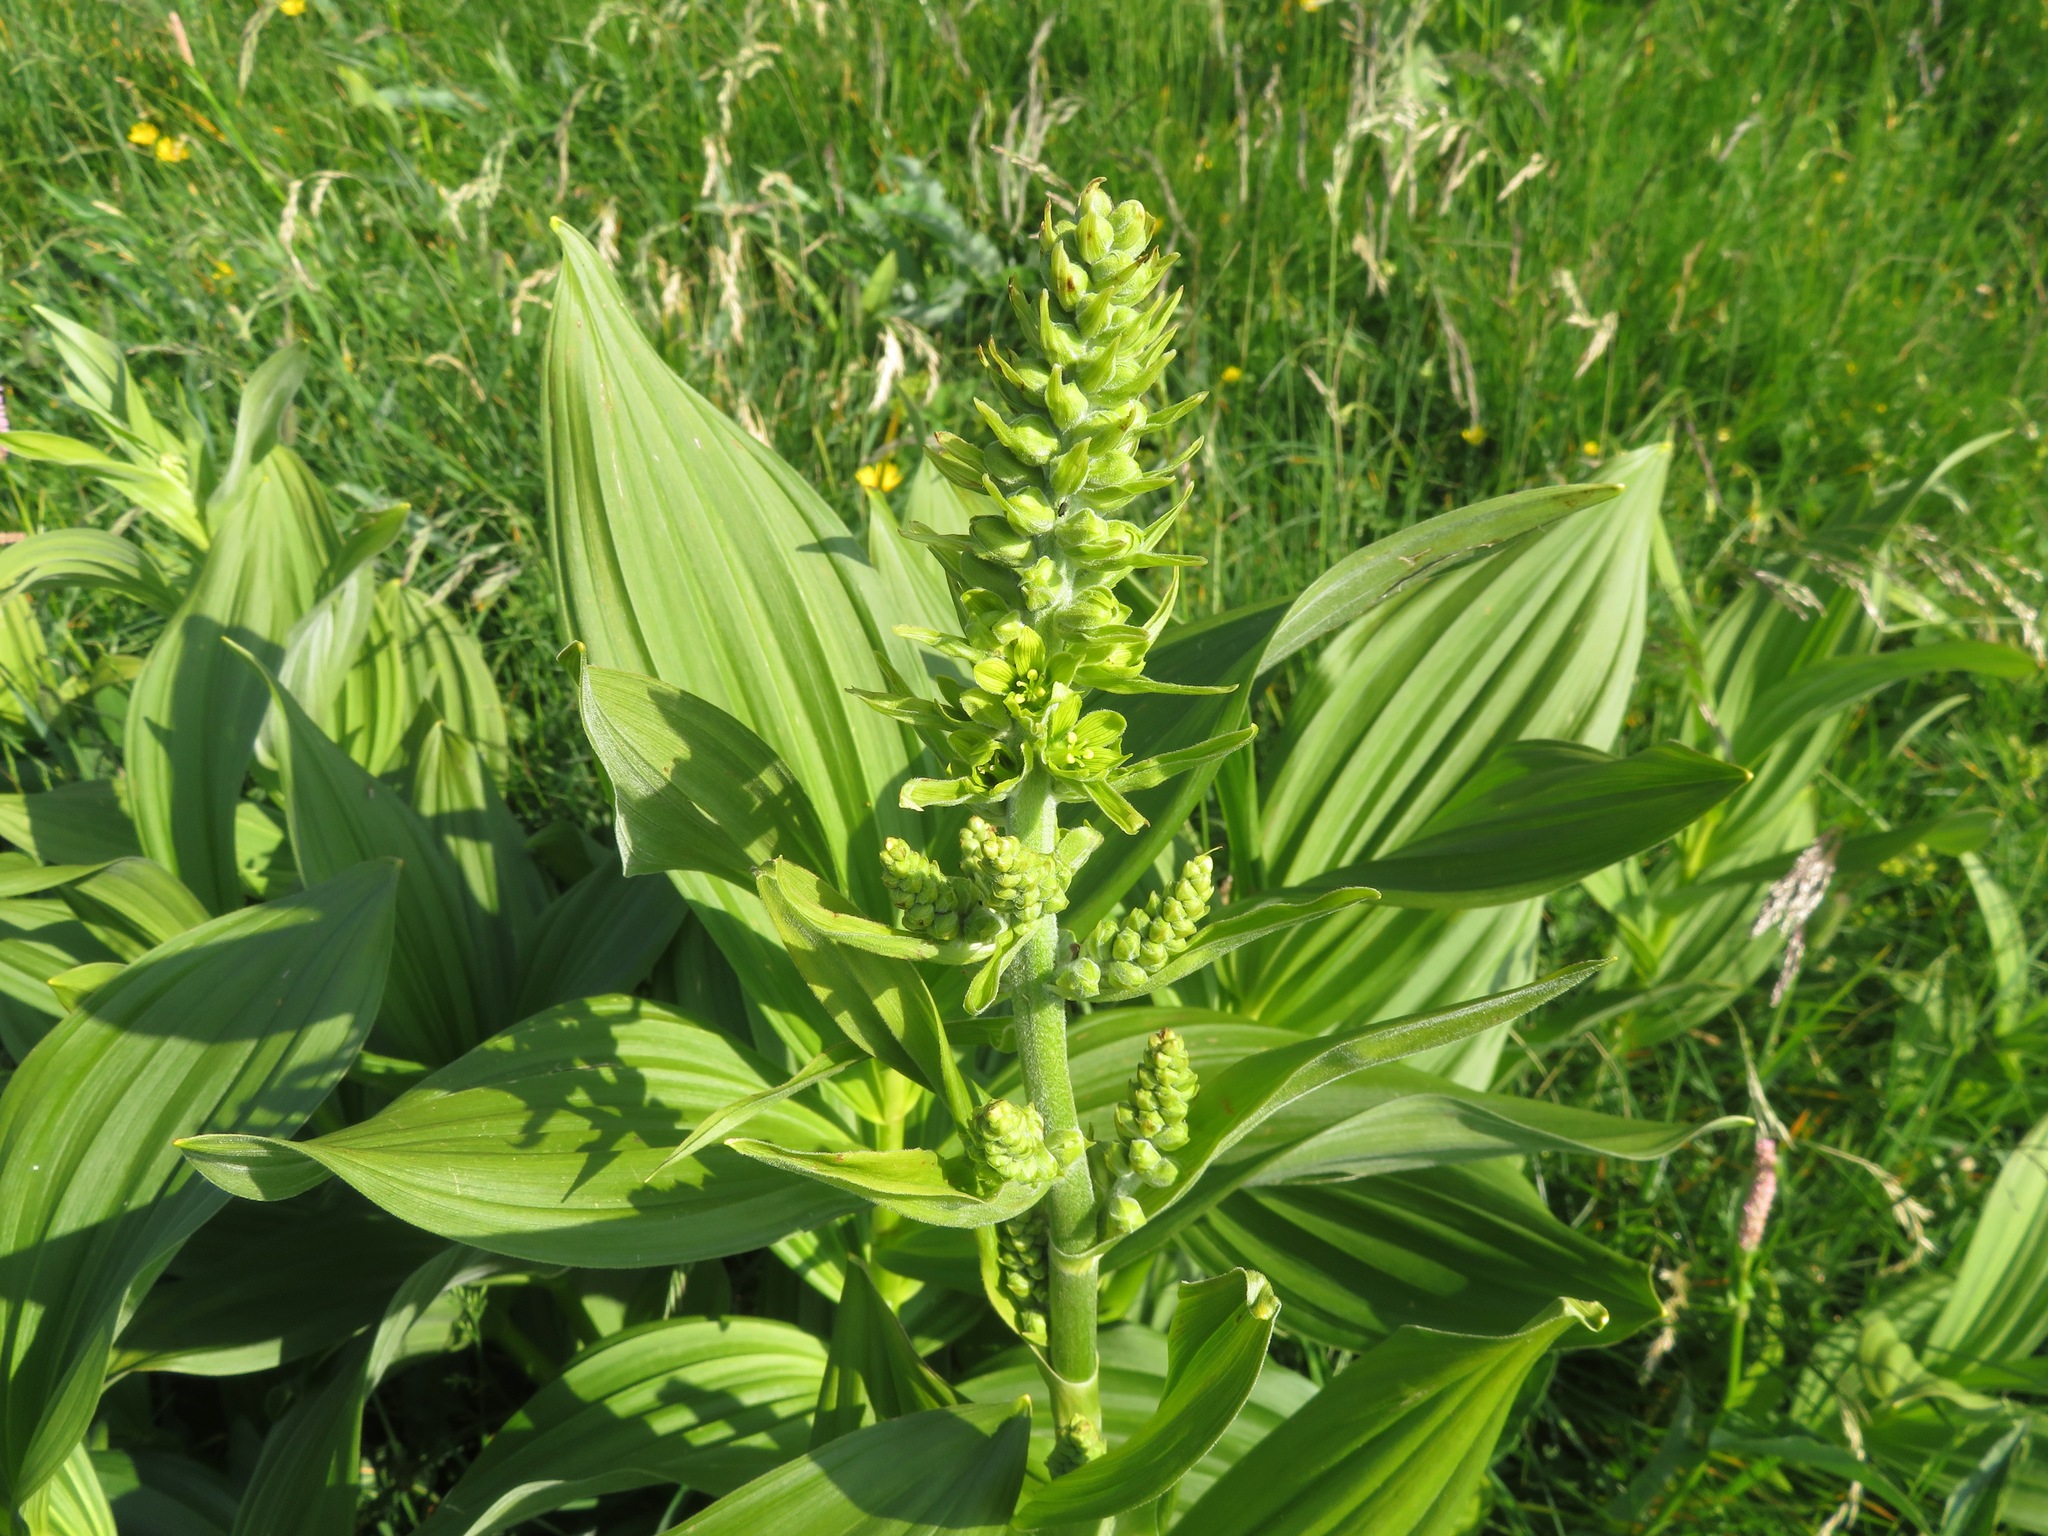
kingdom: Plantae
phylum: Tracheophyta
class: Liliopsida
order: Liliales
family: Melanthiaceae
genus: Veratrum
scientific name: Veratrum lobelianum
